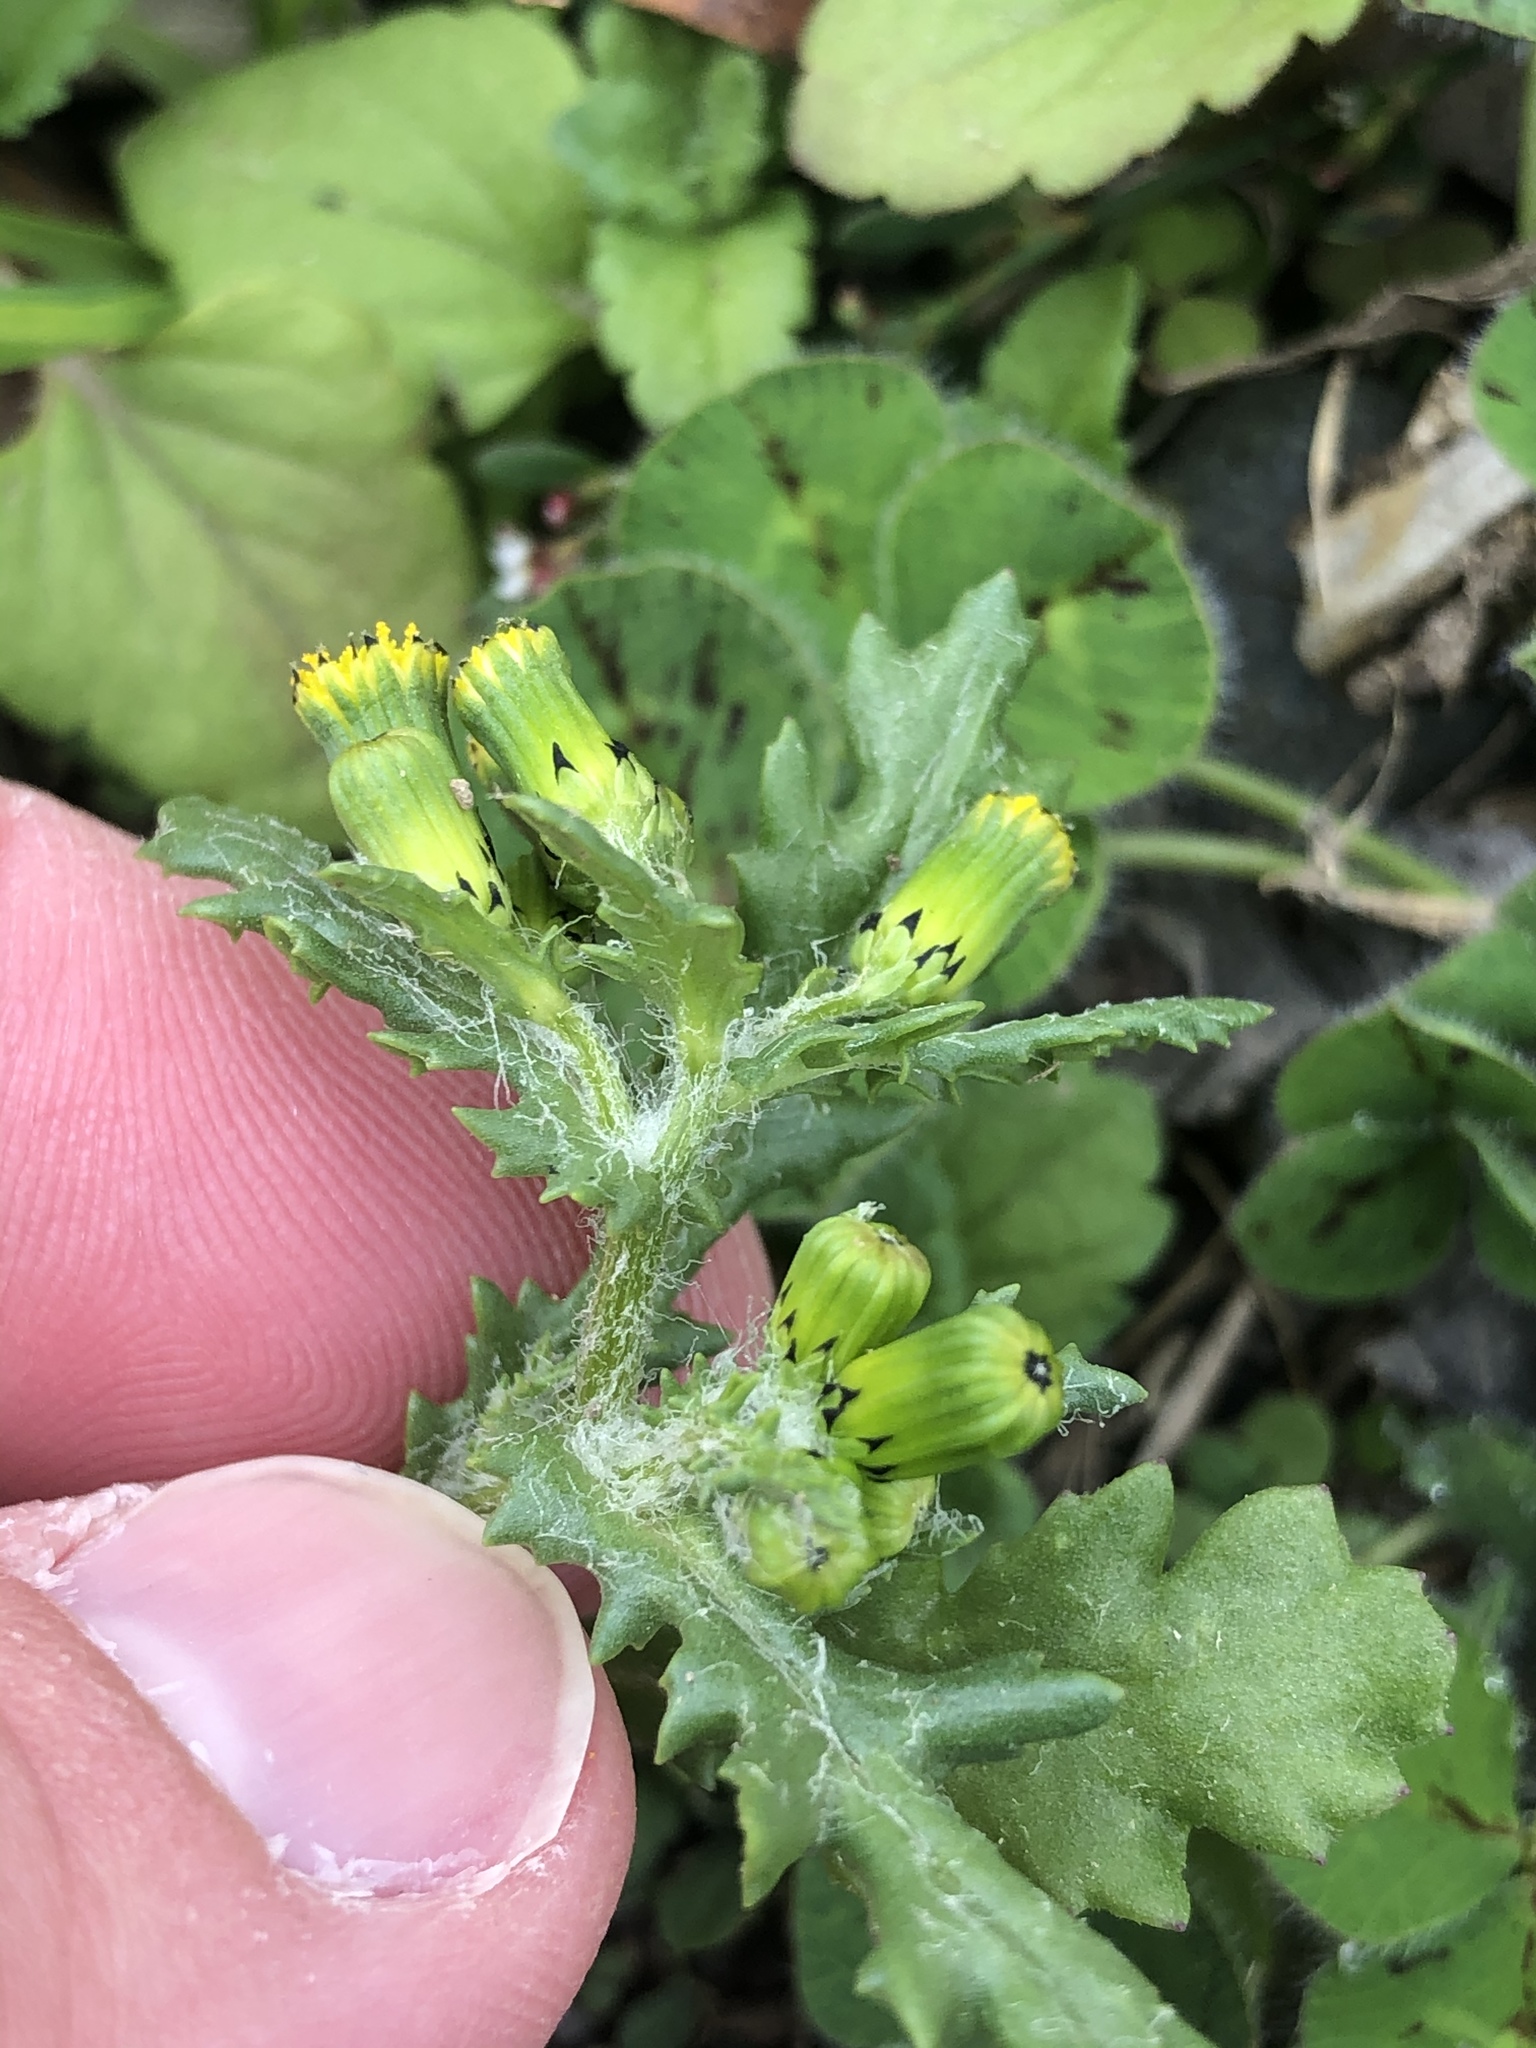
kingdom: Plantae
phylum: Tracheophyta
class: Magnoliopsida
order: Asterales
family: Asteraceae
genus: Senecio
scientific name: Senecio vulgaris
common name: Old-man-in-the-spring
